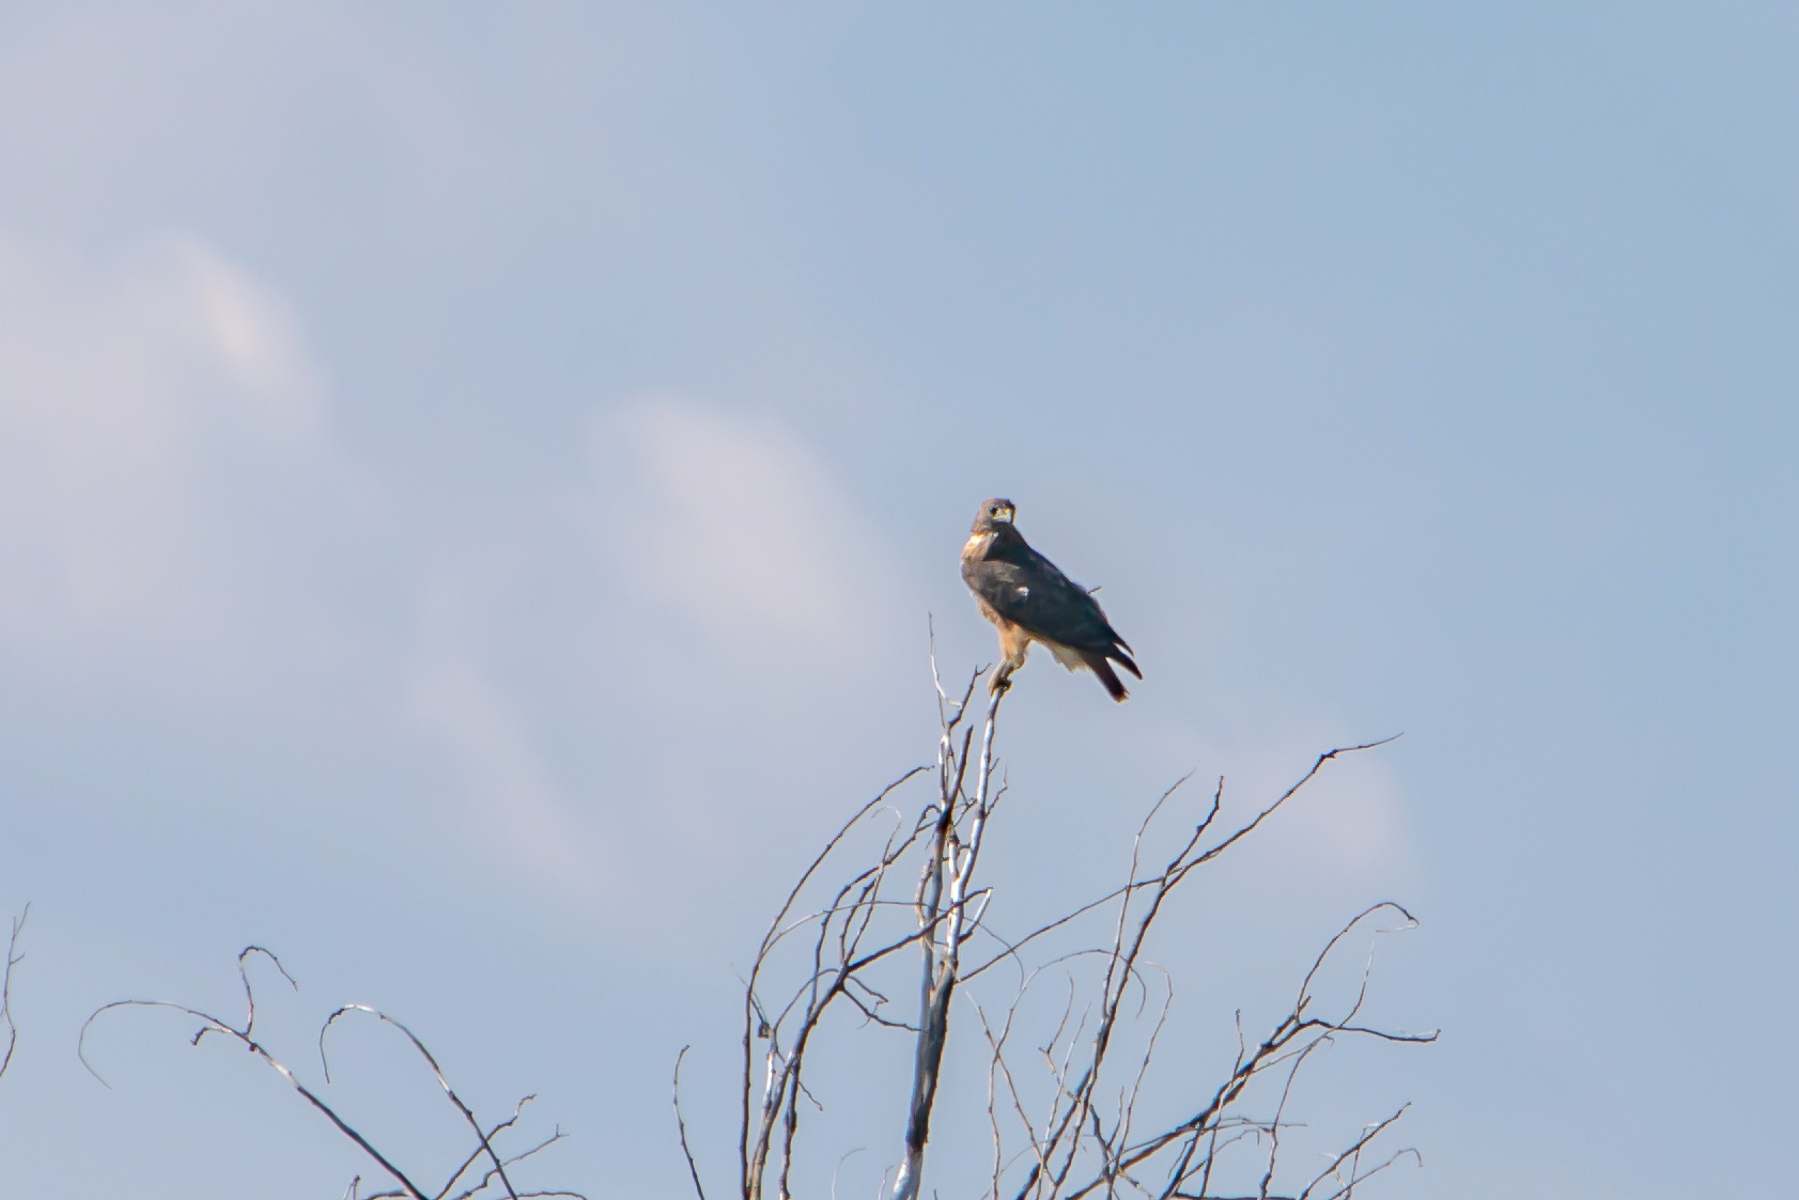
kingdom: Animalia
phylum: Chordata
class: Aves
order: Accipitriformes
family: Accipitridae
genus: Buteo
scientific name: Buteo jamaicensis
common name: Red-tailed hawk
